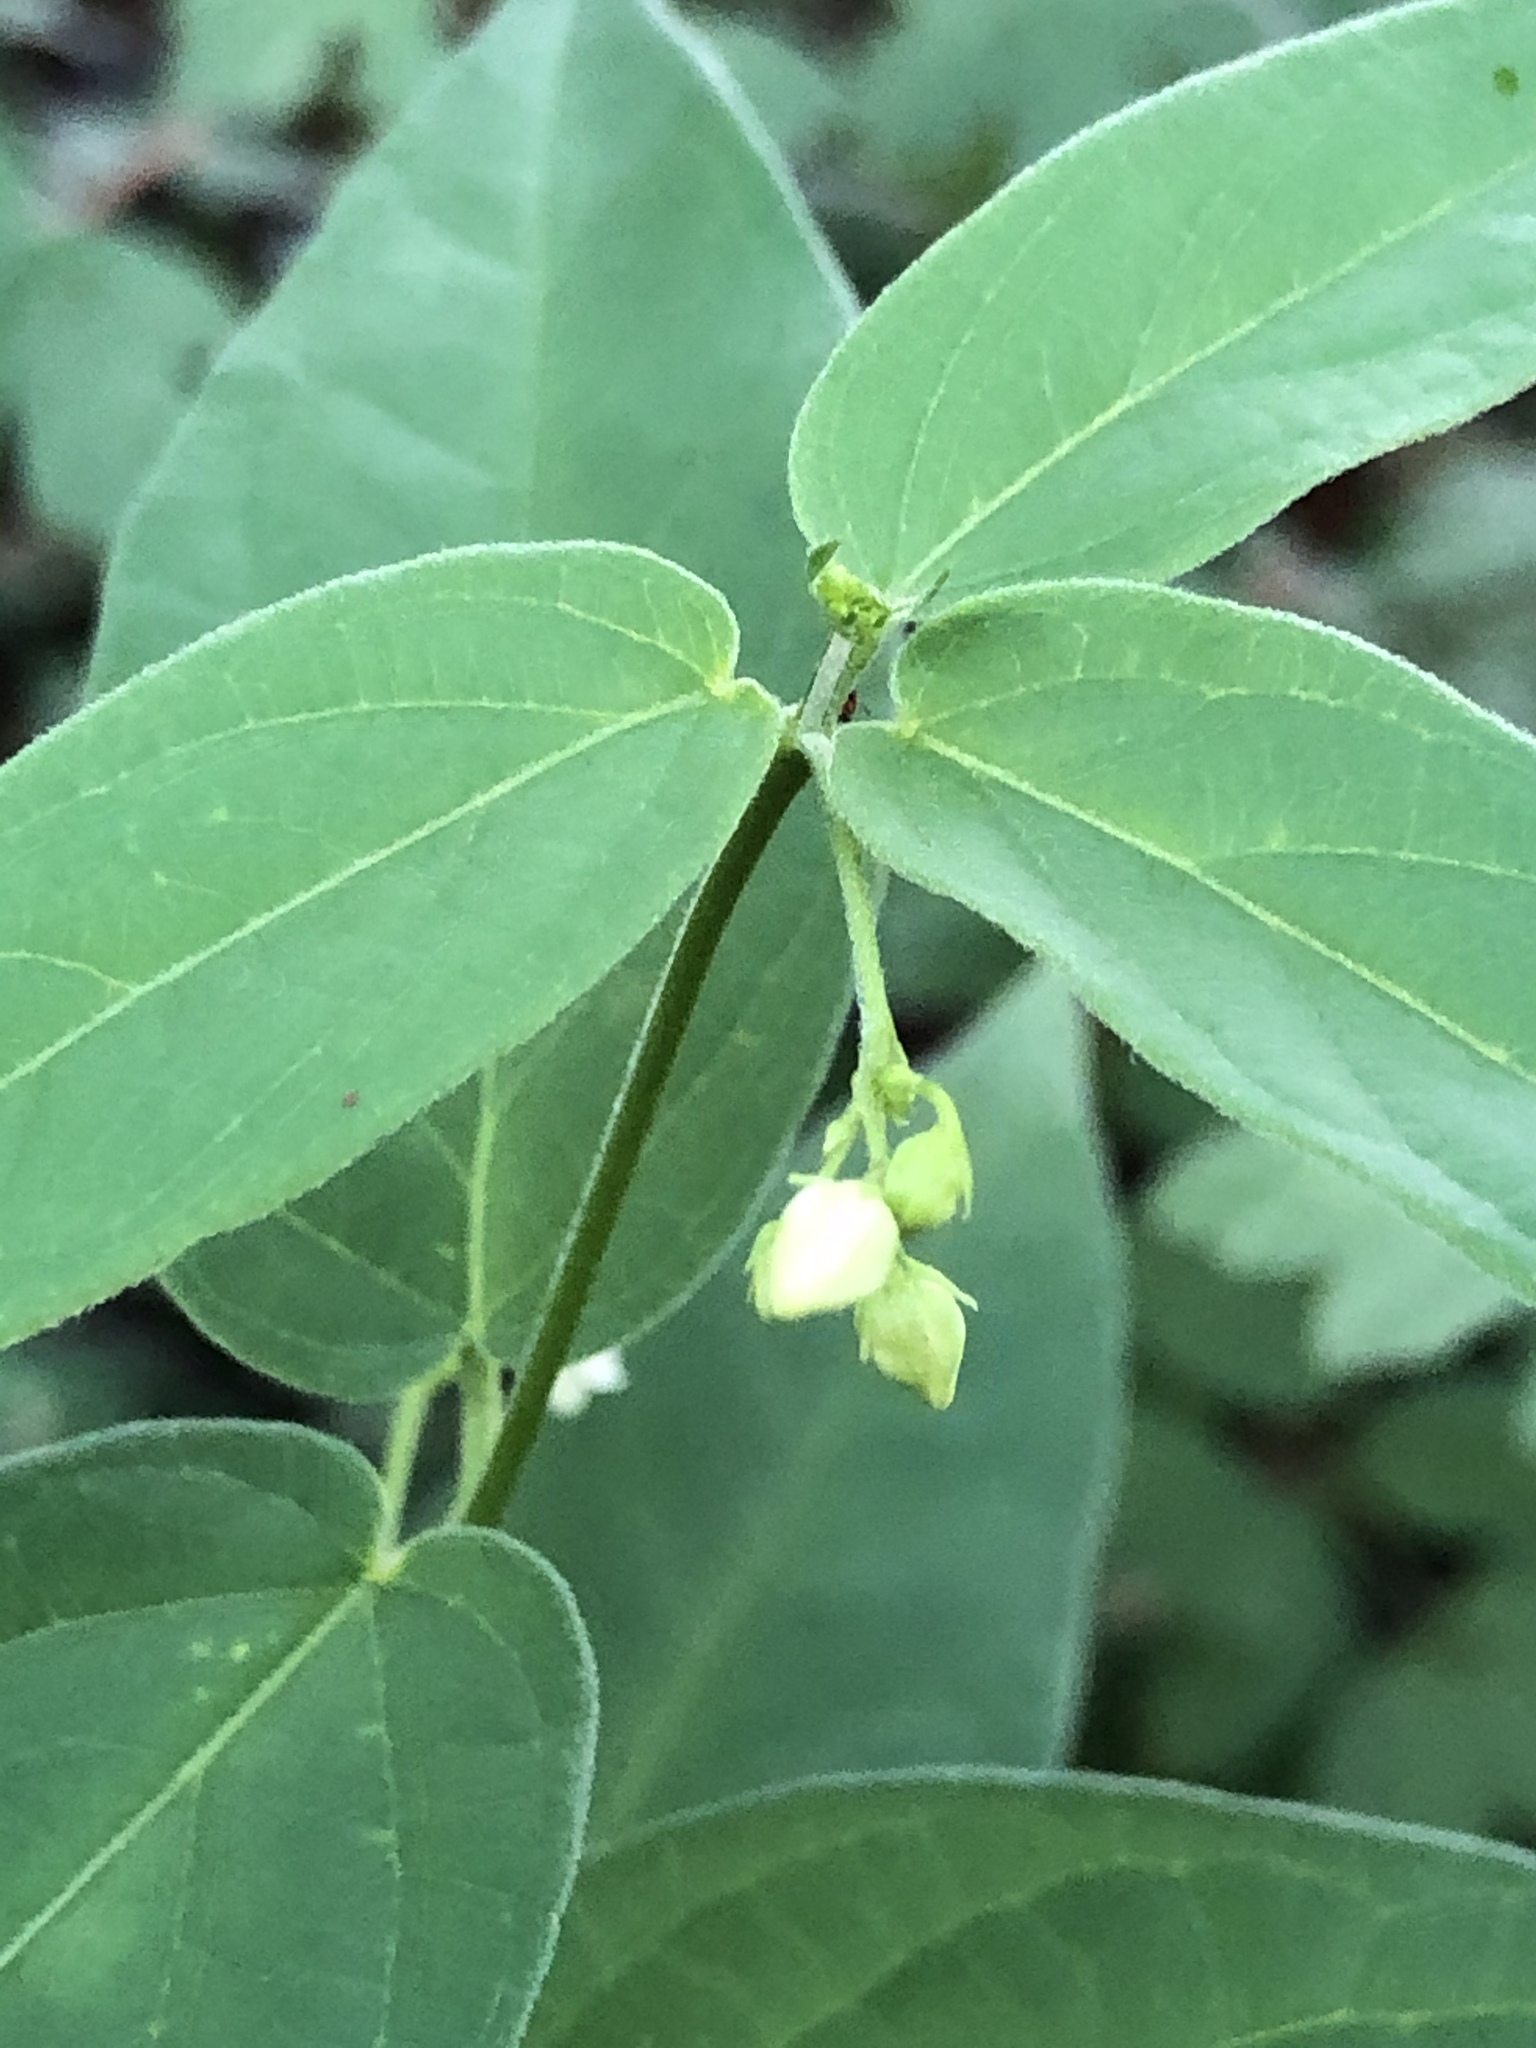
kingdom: Plantae
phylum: Tracheophyta
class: Magnoliopsida
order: Gentianales
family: Apocynaceae
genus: Vincetoxicum
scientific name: Vincetoxicum hirundinaria
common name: White swallowwort
